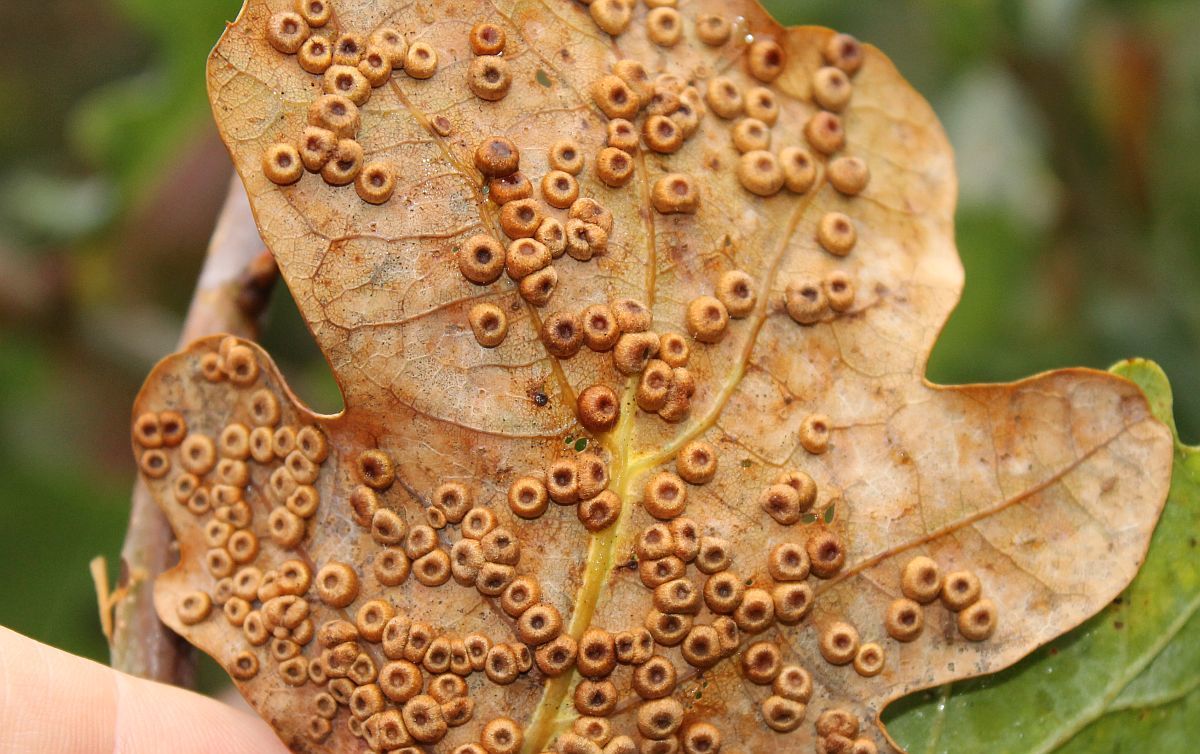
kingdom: Animalia
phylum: Arthropoda
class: Insecta
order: Hymenoptera
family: Cynipidae
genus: Neuroterus
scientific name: Neuroterus numismalis
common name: Silk-button spangle gall
